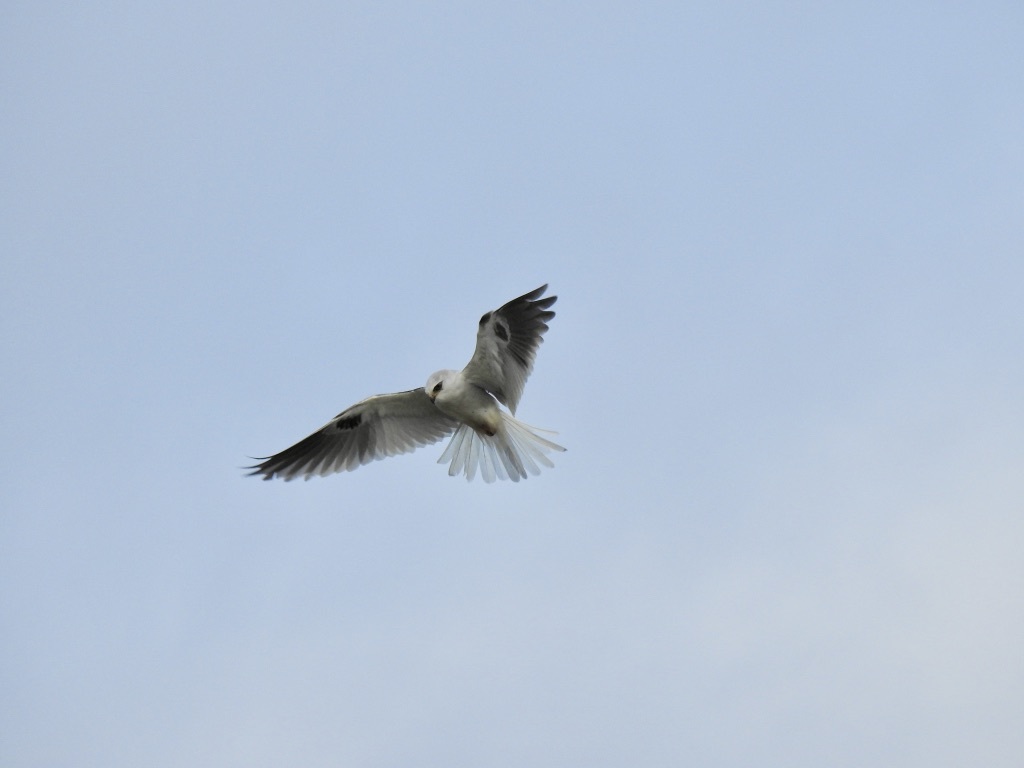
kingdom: Animalia
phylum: Chordata
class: Aves
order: Accipitriformes
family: Accipitridae
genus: Elanus
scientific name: Elanus leucurus
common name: White-tailed kite
